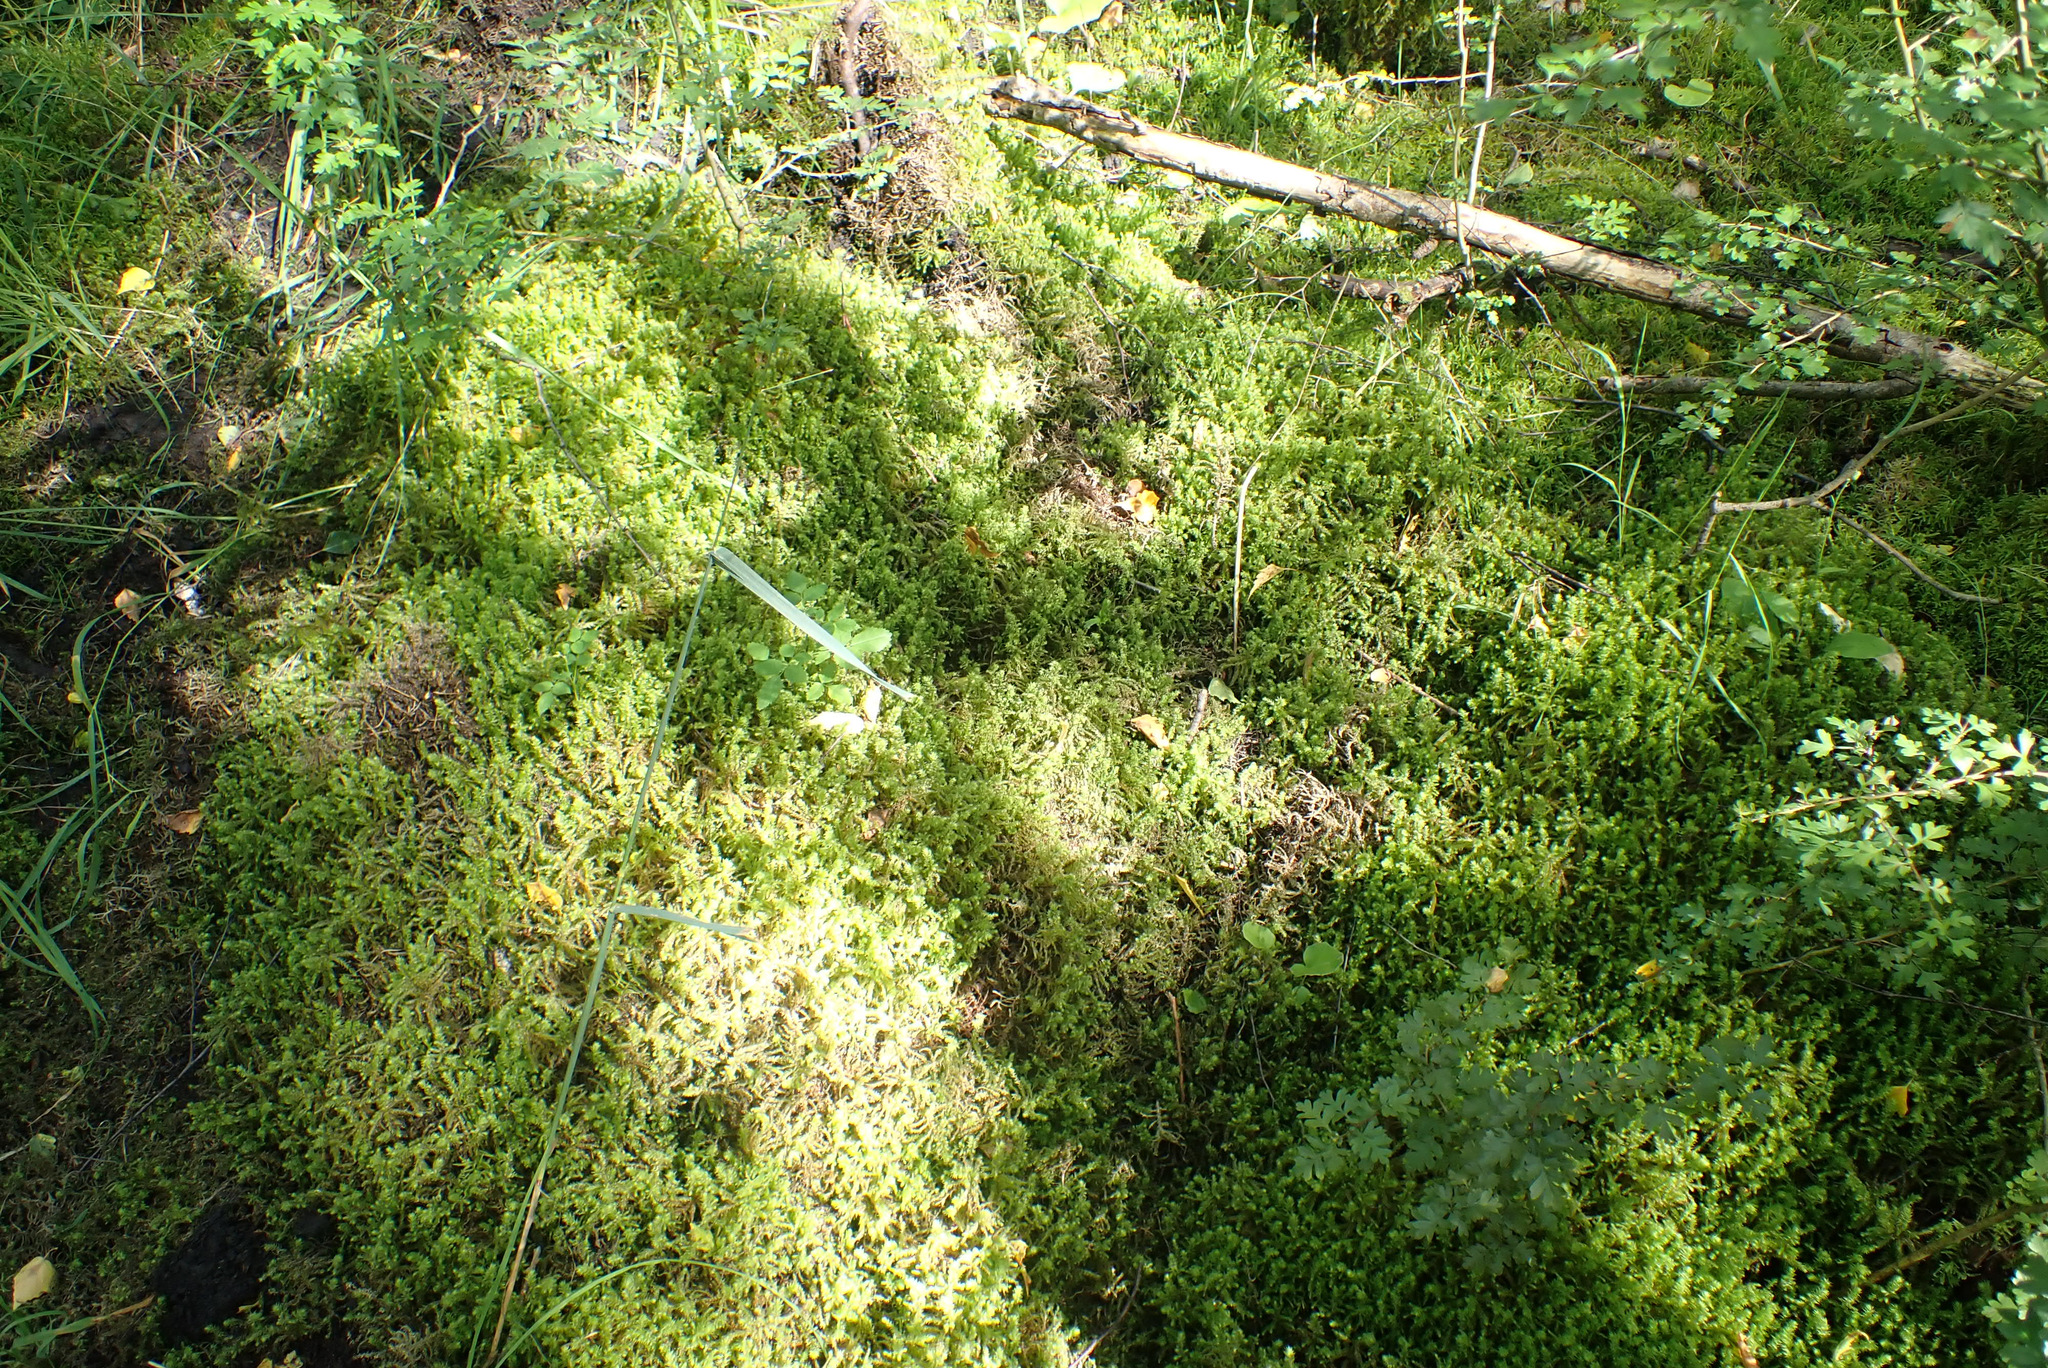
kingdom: Plantae
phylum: Bryophyta
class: Bryopsida
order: Hypnales
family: Hylocomiaceae
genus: Hylocomiadelphus
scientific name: Hylocomiadelphus triquetrus
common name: Rough goose neck moss
